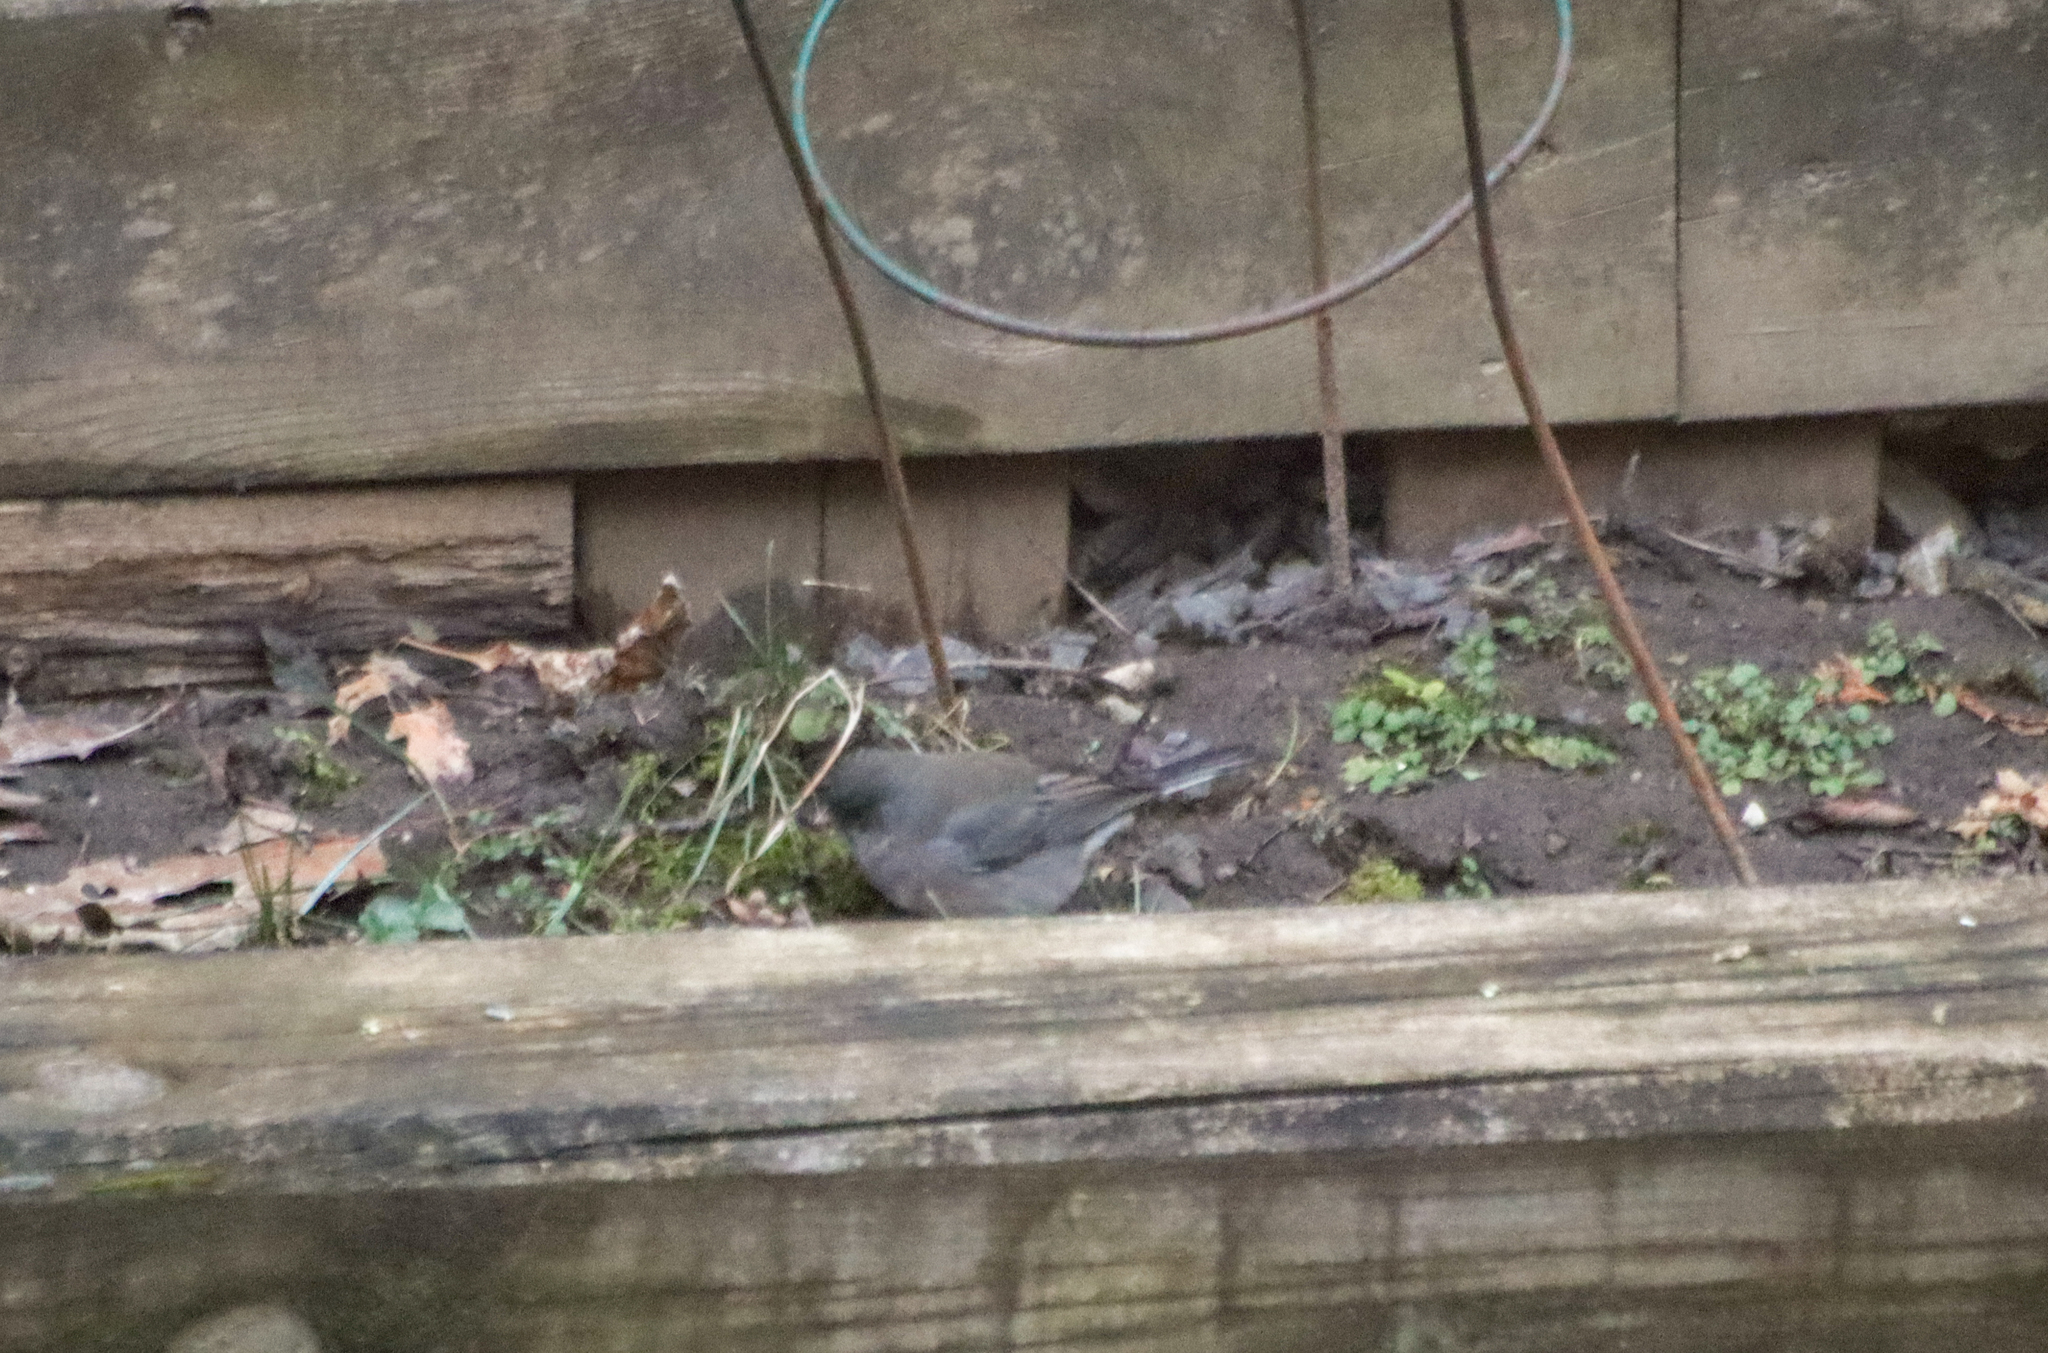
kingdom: Animalia
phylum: Chordata
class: Aves
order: Passeriformes
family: Passerellidae
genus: Junco
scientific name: Junco hyemalis
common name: Dark-eyed junco
